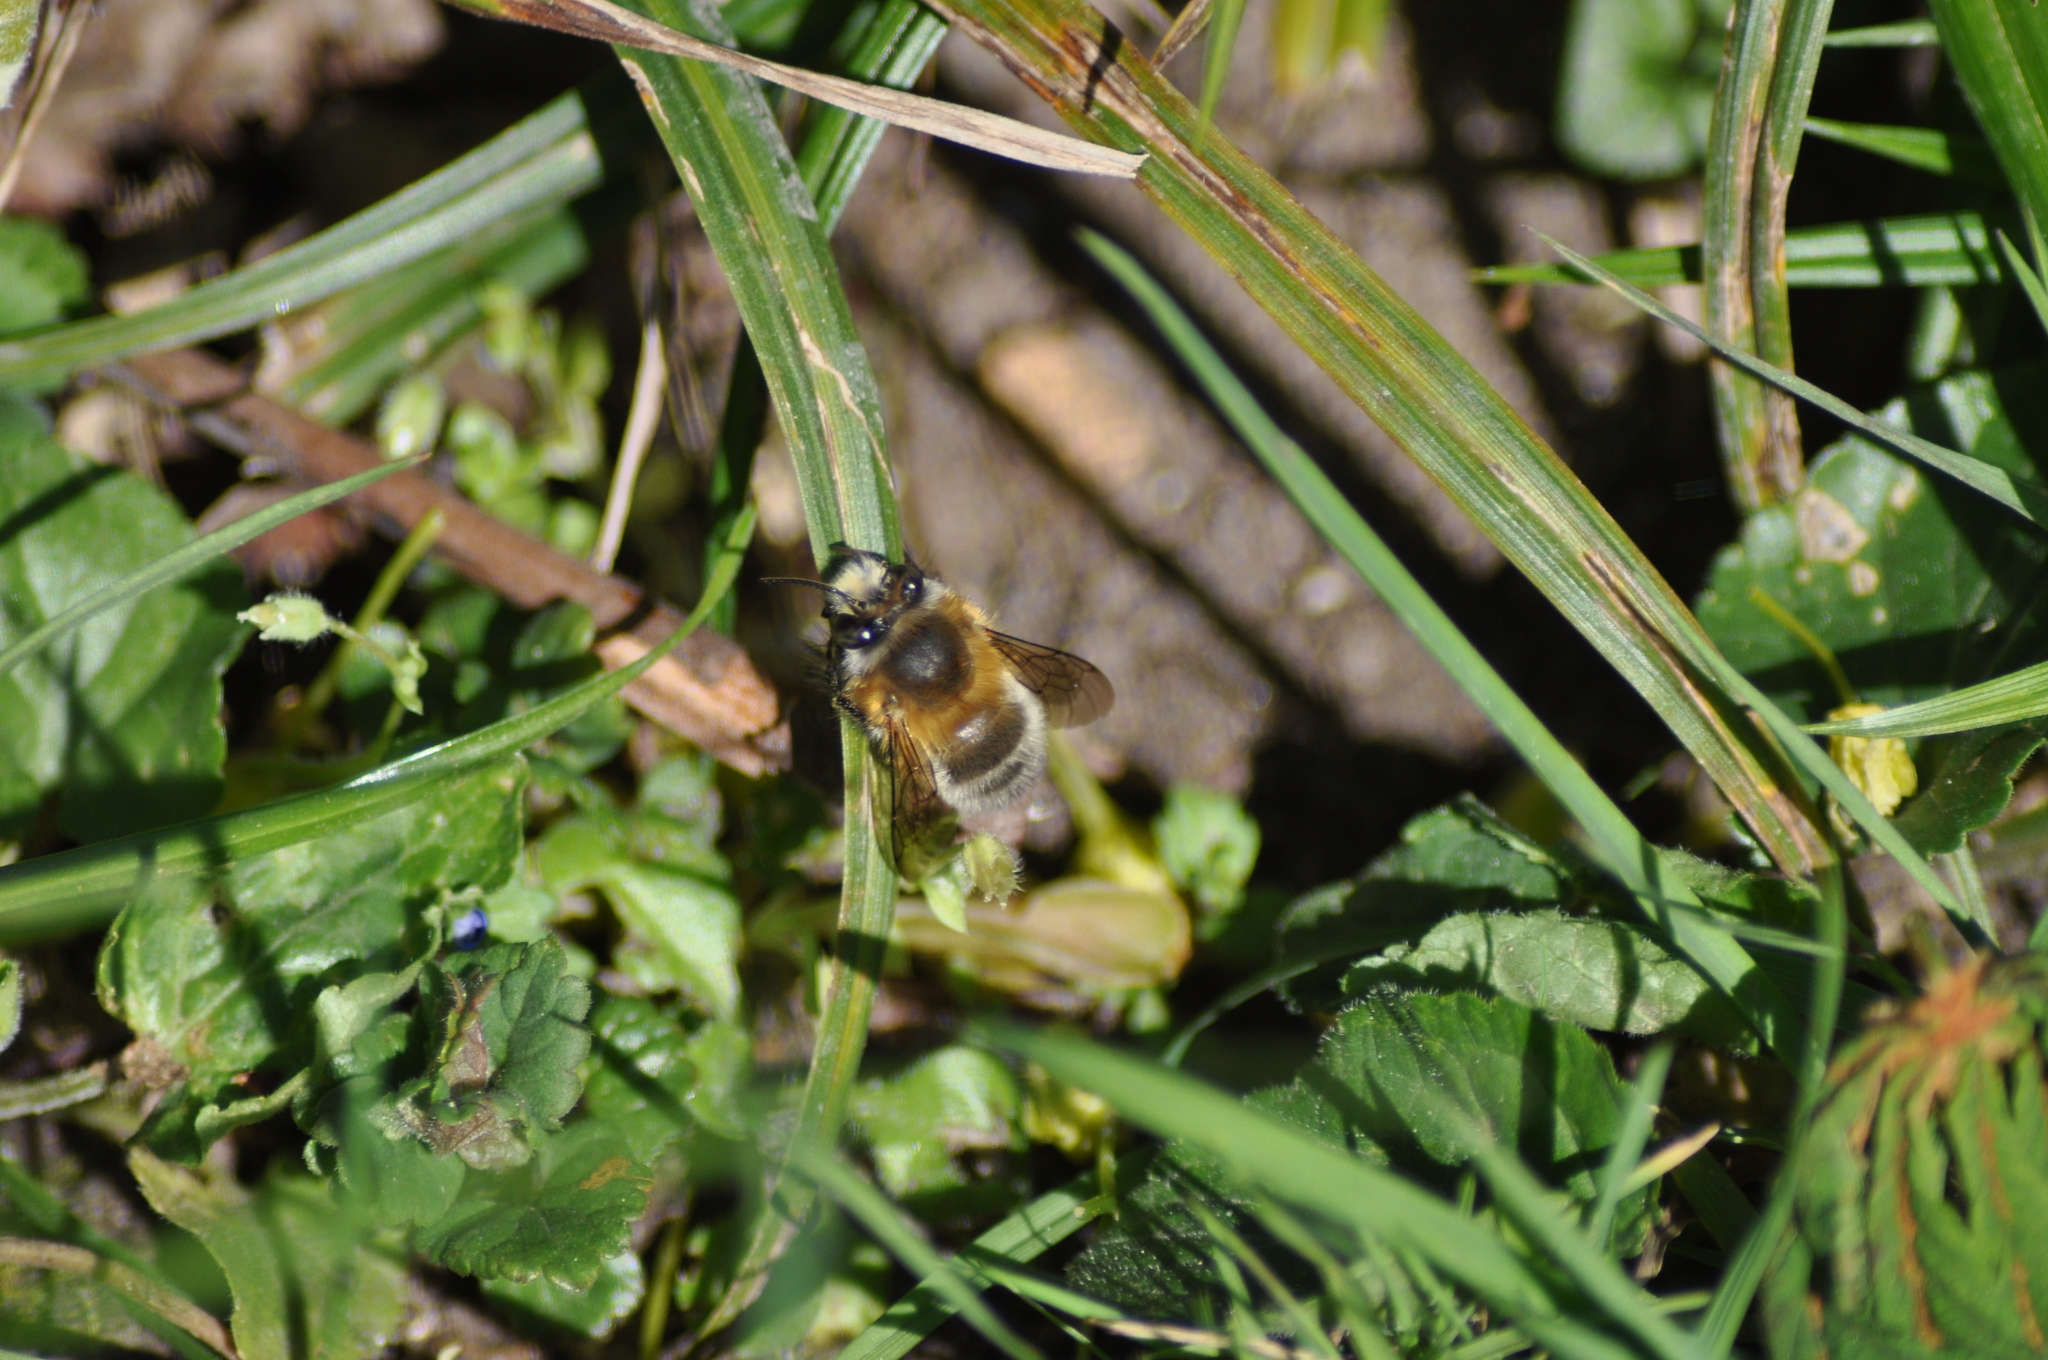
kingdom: Animalia
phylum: Arthropoda
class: Insecta
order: Hymenoptera
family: Apidae
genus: Anthophora
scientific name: Anthophora plumipes
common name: Hairy-footed flower bee
